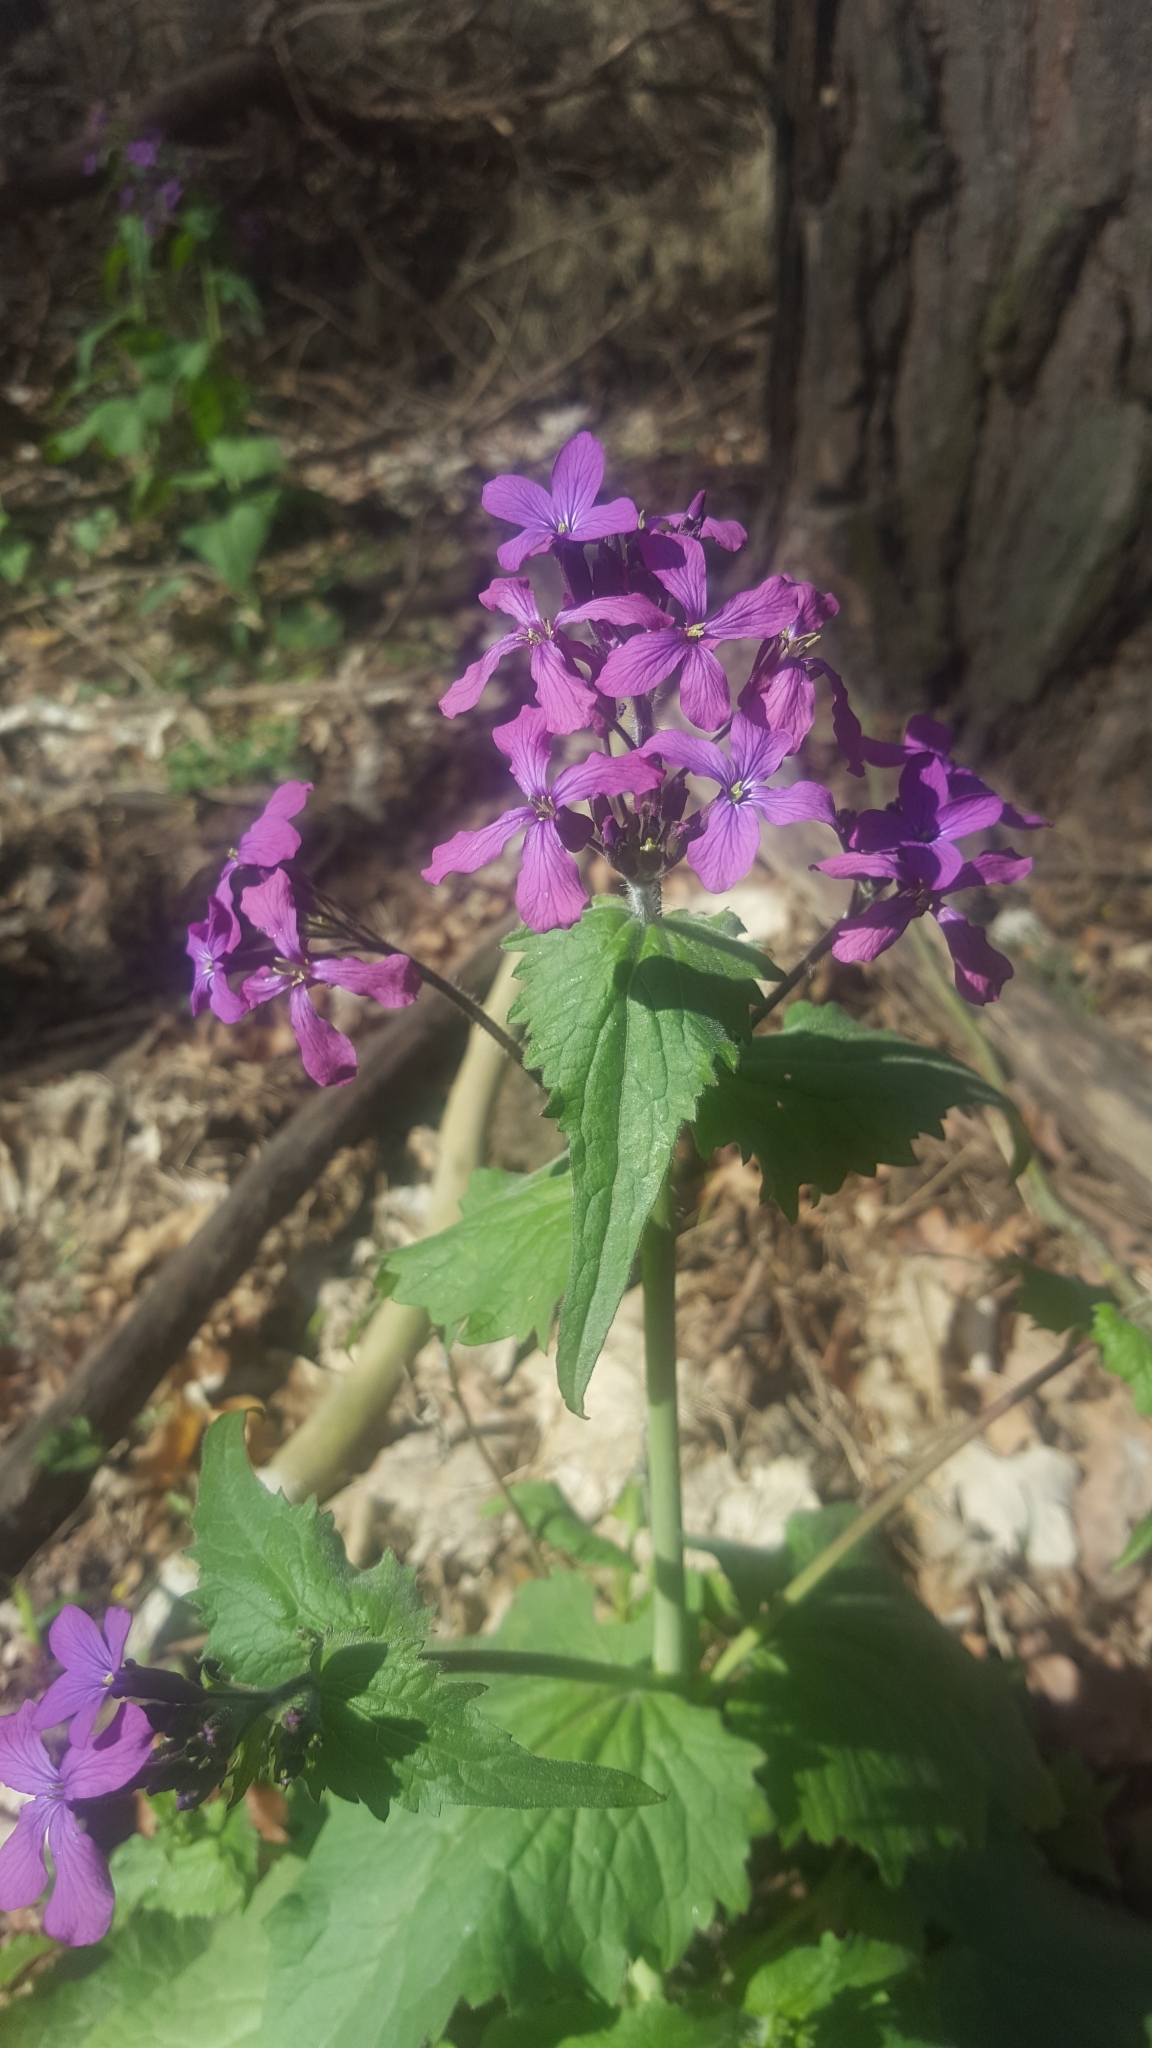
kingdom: Plantae
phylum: Tracheophyta
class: Magnoliopsida
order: Brassicales
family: Brassicaceae
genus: Lunaria
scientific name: Lunaria annua
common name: Honesty
